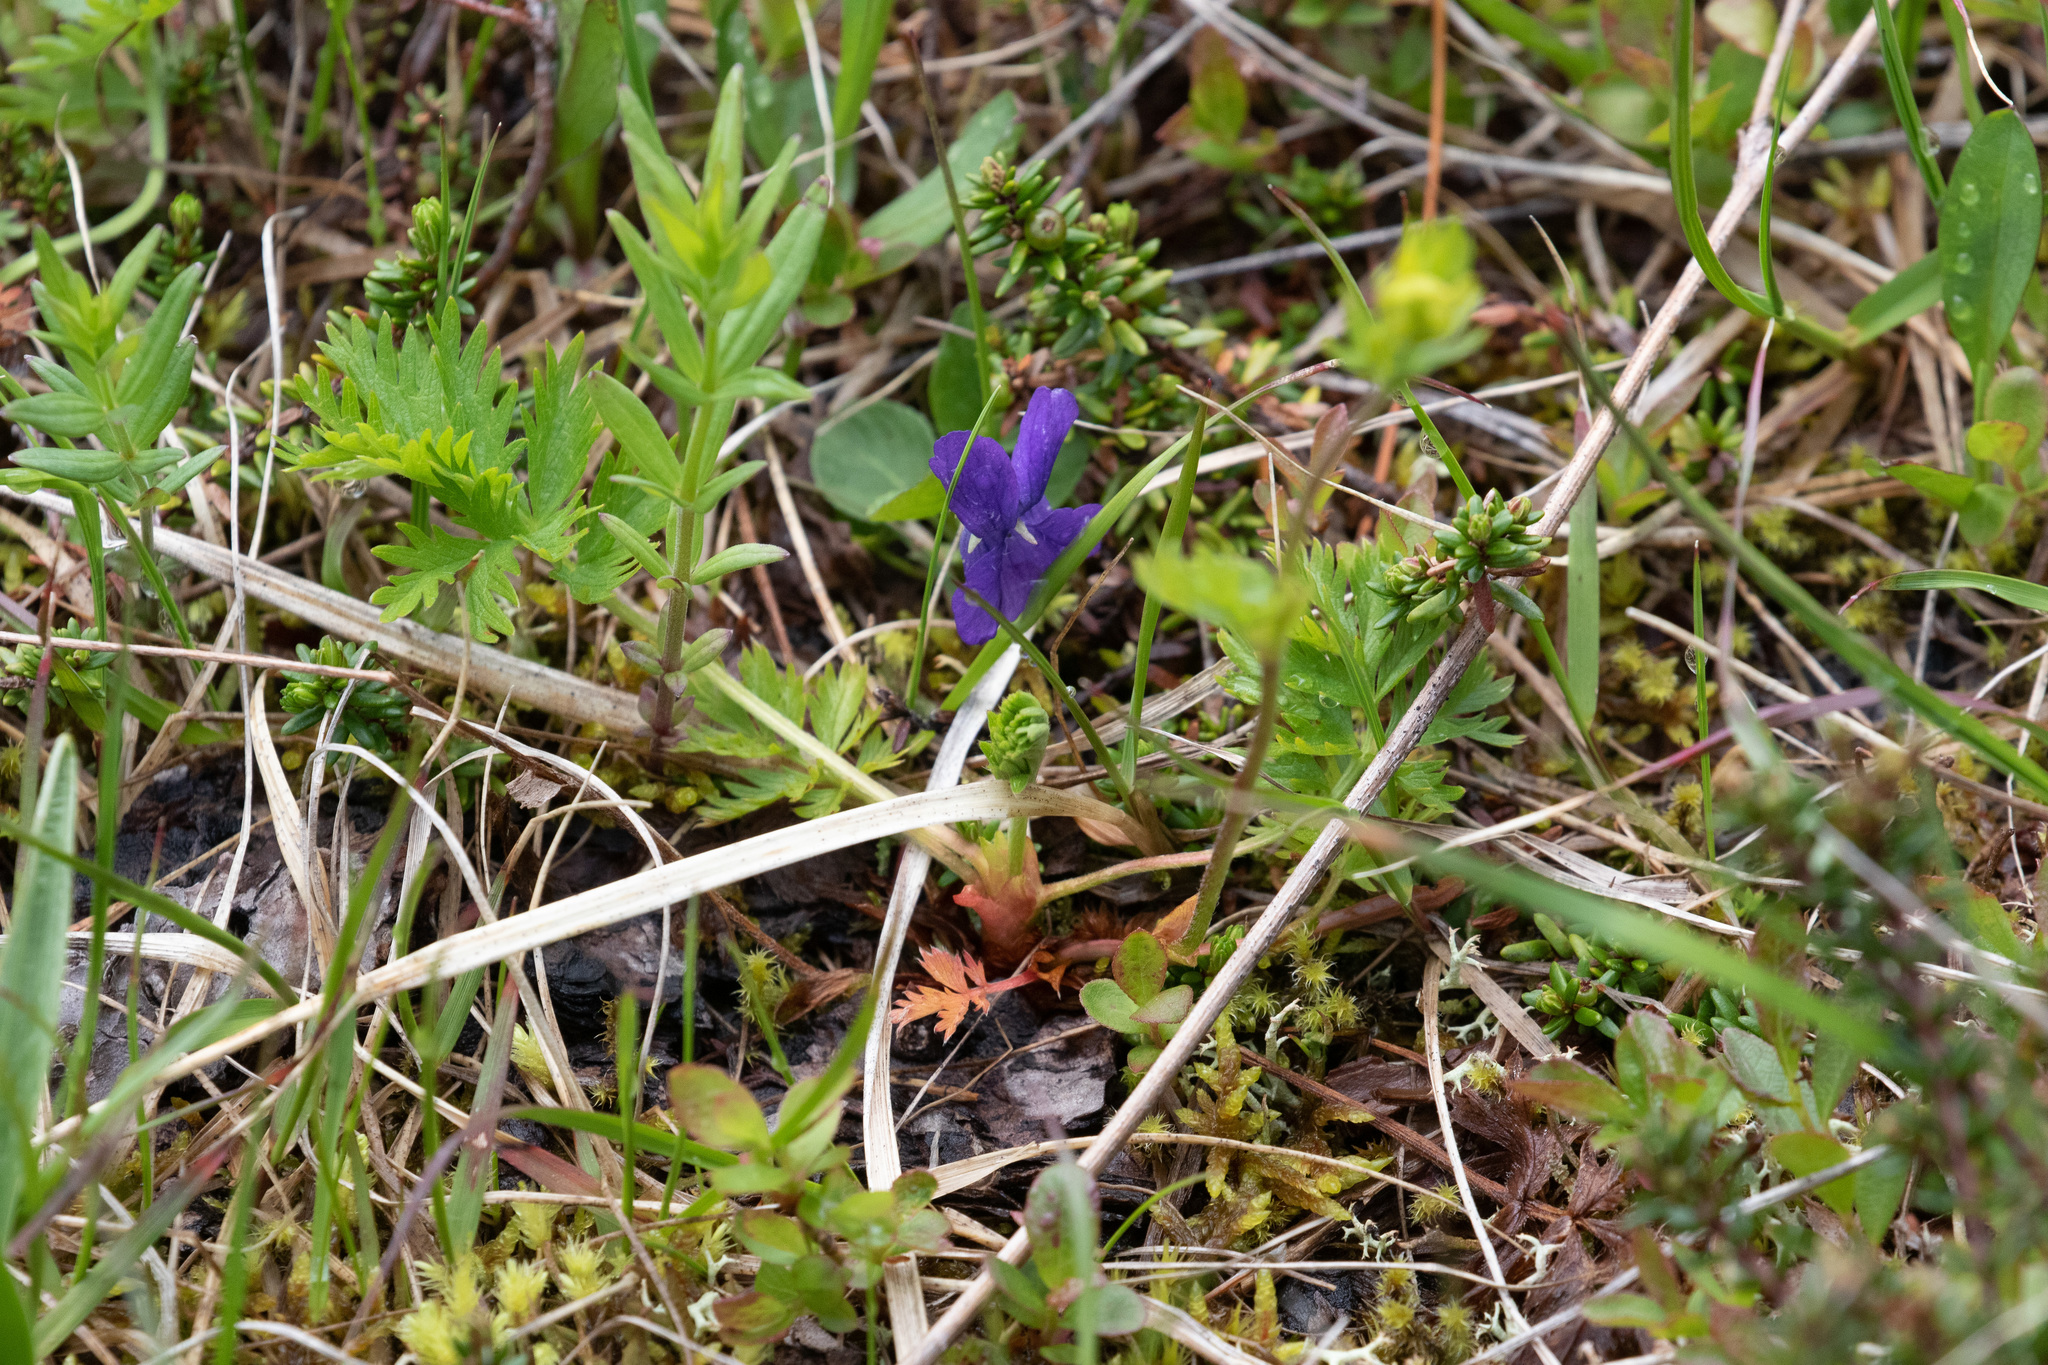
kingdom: Plantae
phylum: Tracheophyta
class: Magnoliopsida
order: Malpighiales
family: Violaceae
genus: Viola
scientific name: Viola adunca
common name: Sand violet
